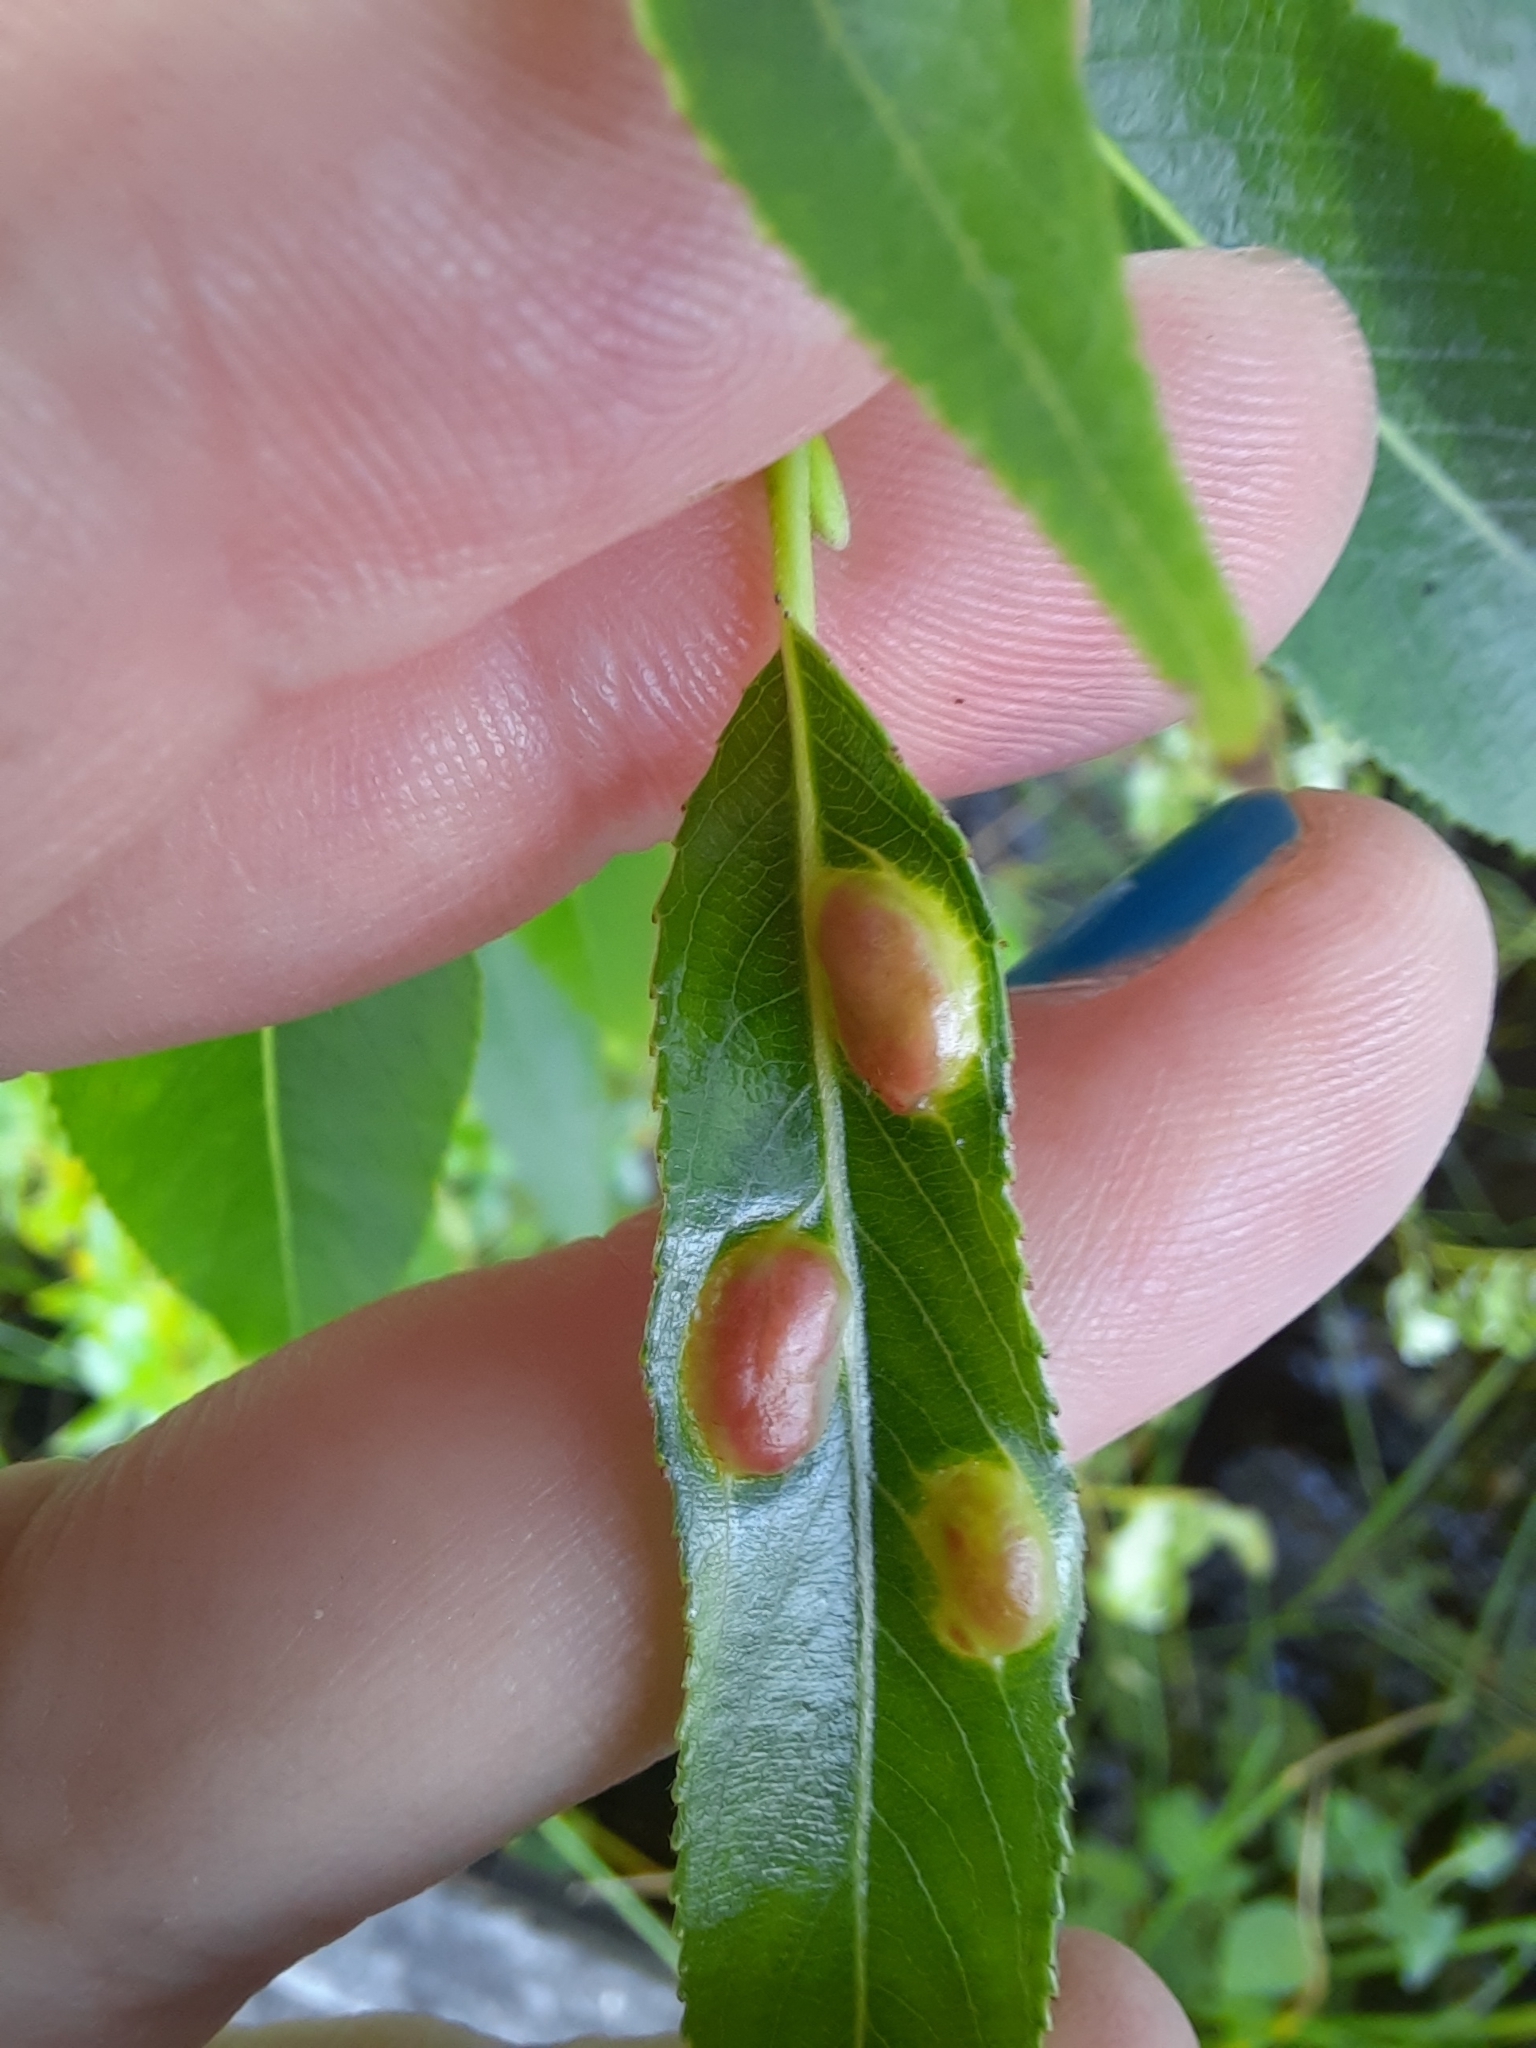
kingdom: Animalia
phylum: Arthropoda
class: Insecta
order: Hymenoptera
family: Tenthredinidae
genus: Pontania
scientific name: Pontania proxima
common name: Common sawfly
